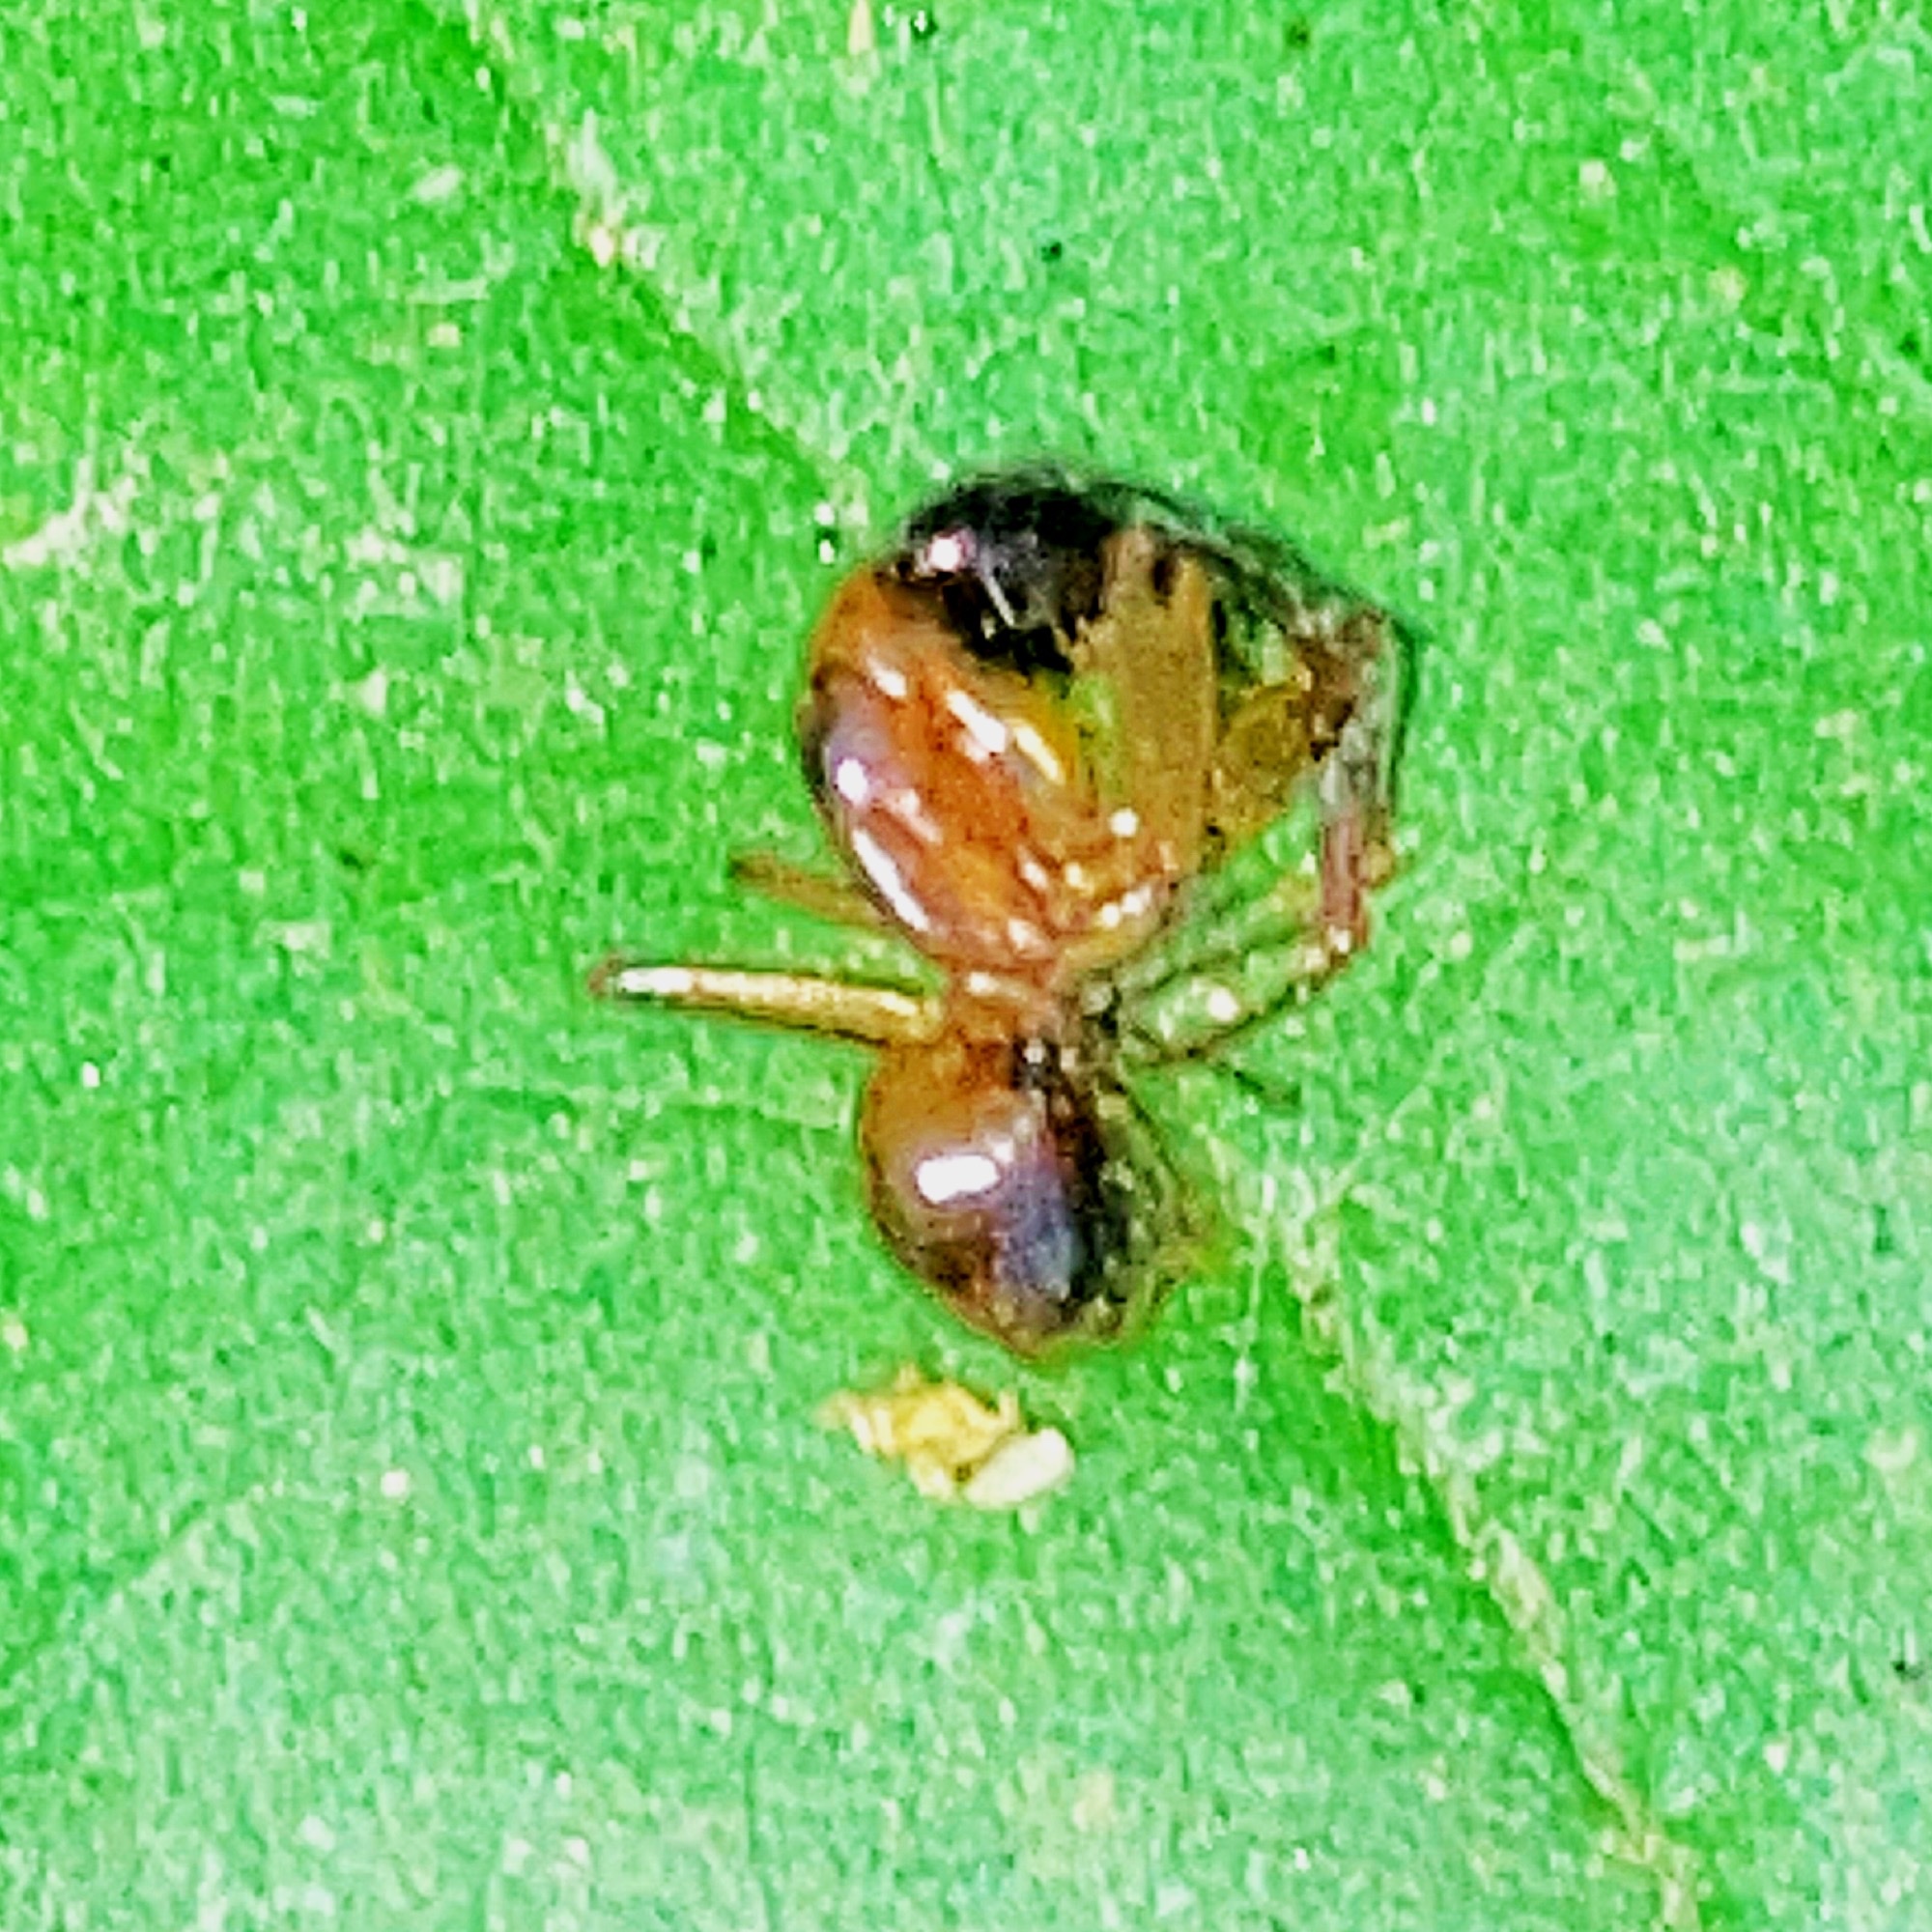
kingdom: Animalia
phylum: Arthropoda
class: Insecta
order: Hymenoptera
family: Formicidae
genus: Camponotus
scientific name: Camponotus americanus
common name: American carpenter ant
